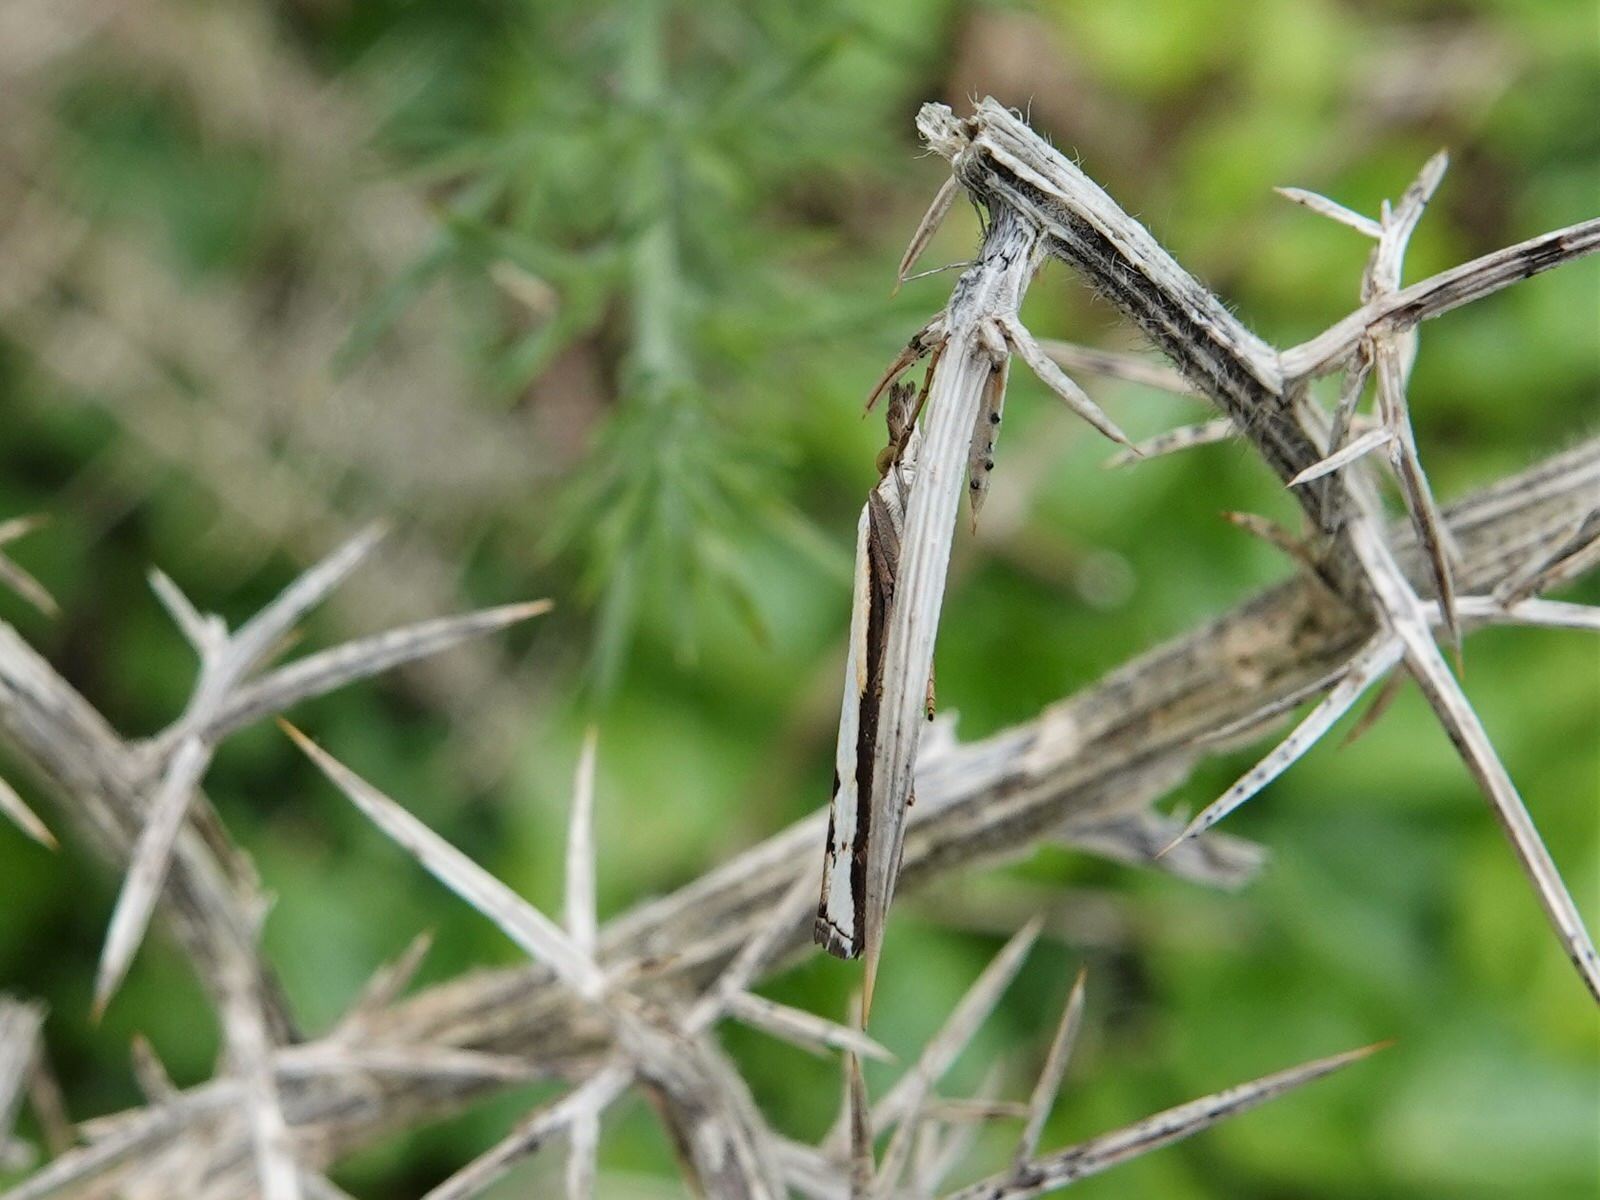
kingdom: Animalia
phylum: Arthropoda
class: Insecta
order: Lepidoptera
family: Crambidae
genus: Orocrambus
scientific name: Orocrambus flexuosellus
